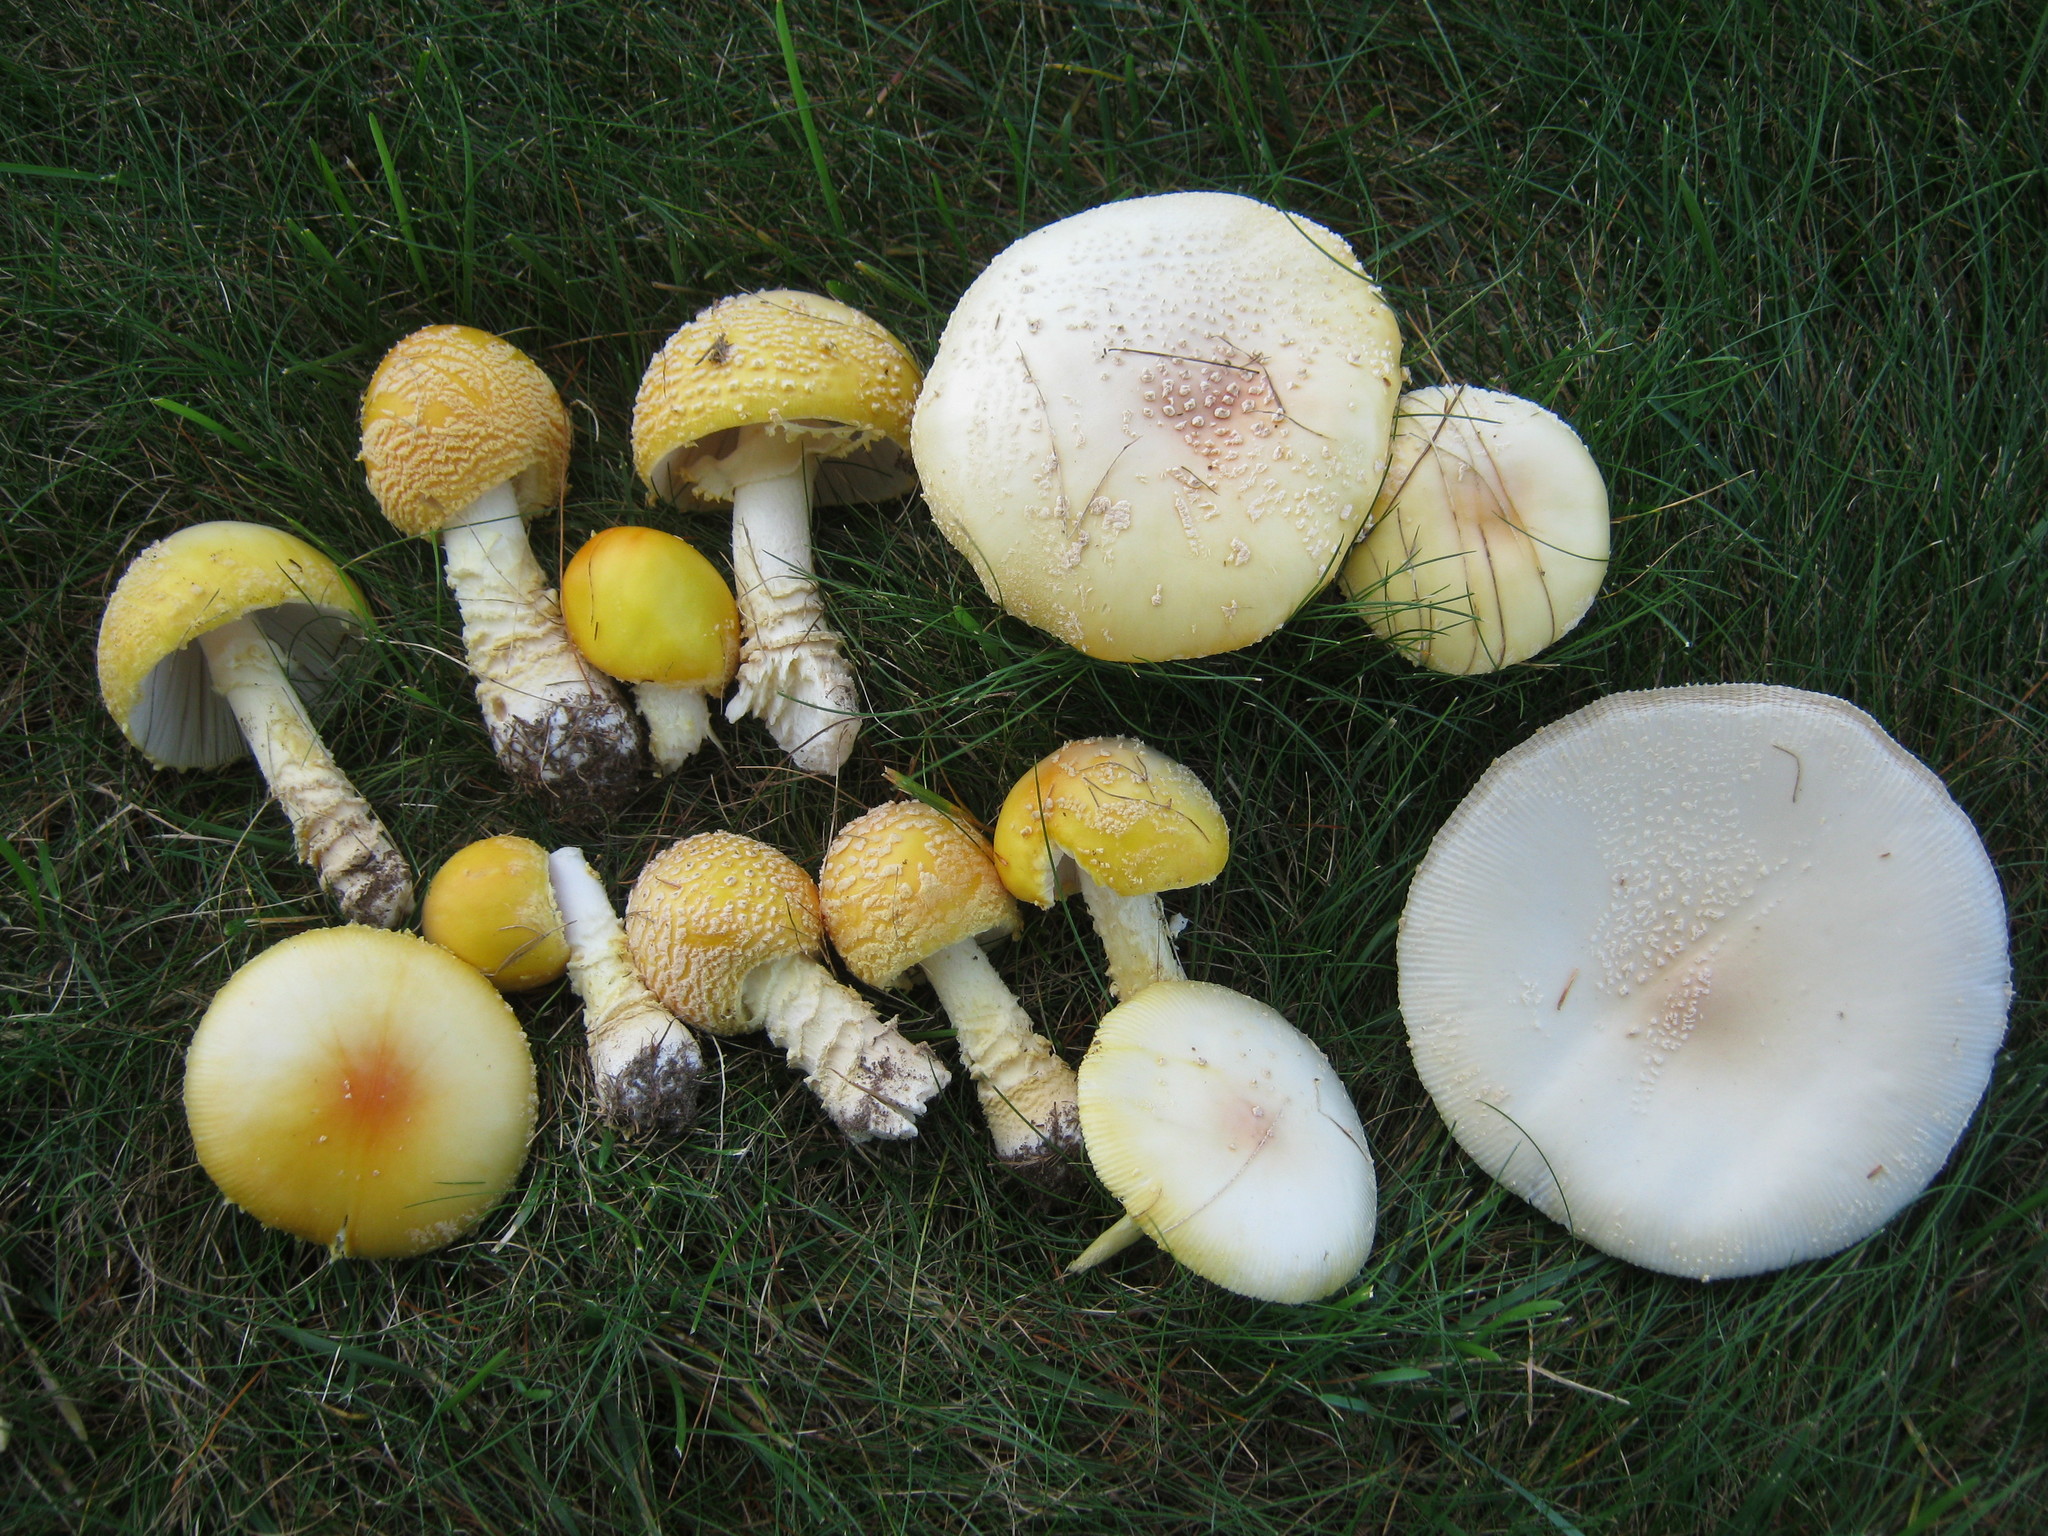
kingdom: Fungi
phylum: Basidiomycota
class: Agaricomycetes
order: Agaricales
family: Amanitaceae
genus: Amanita
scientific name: Amanita muscaria
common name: Fly agaric
